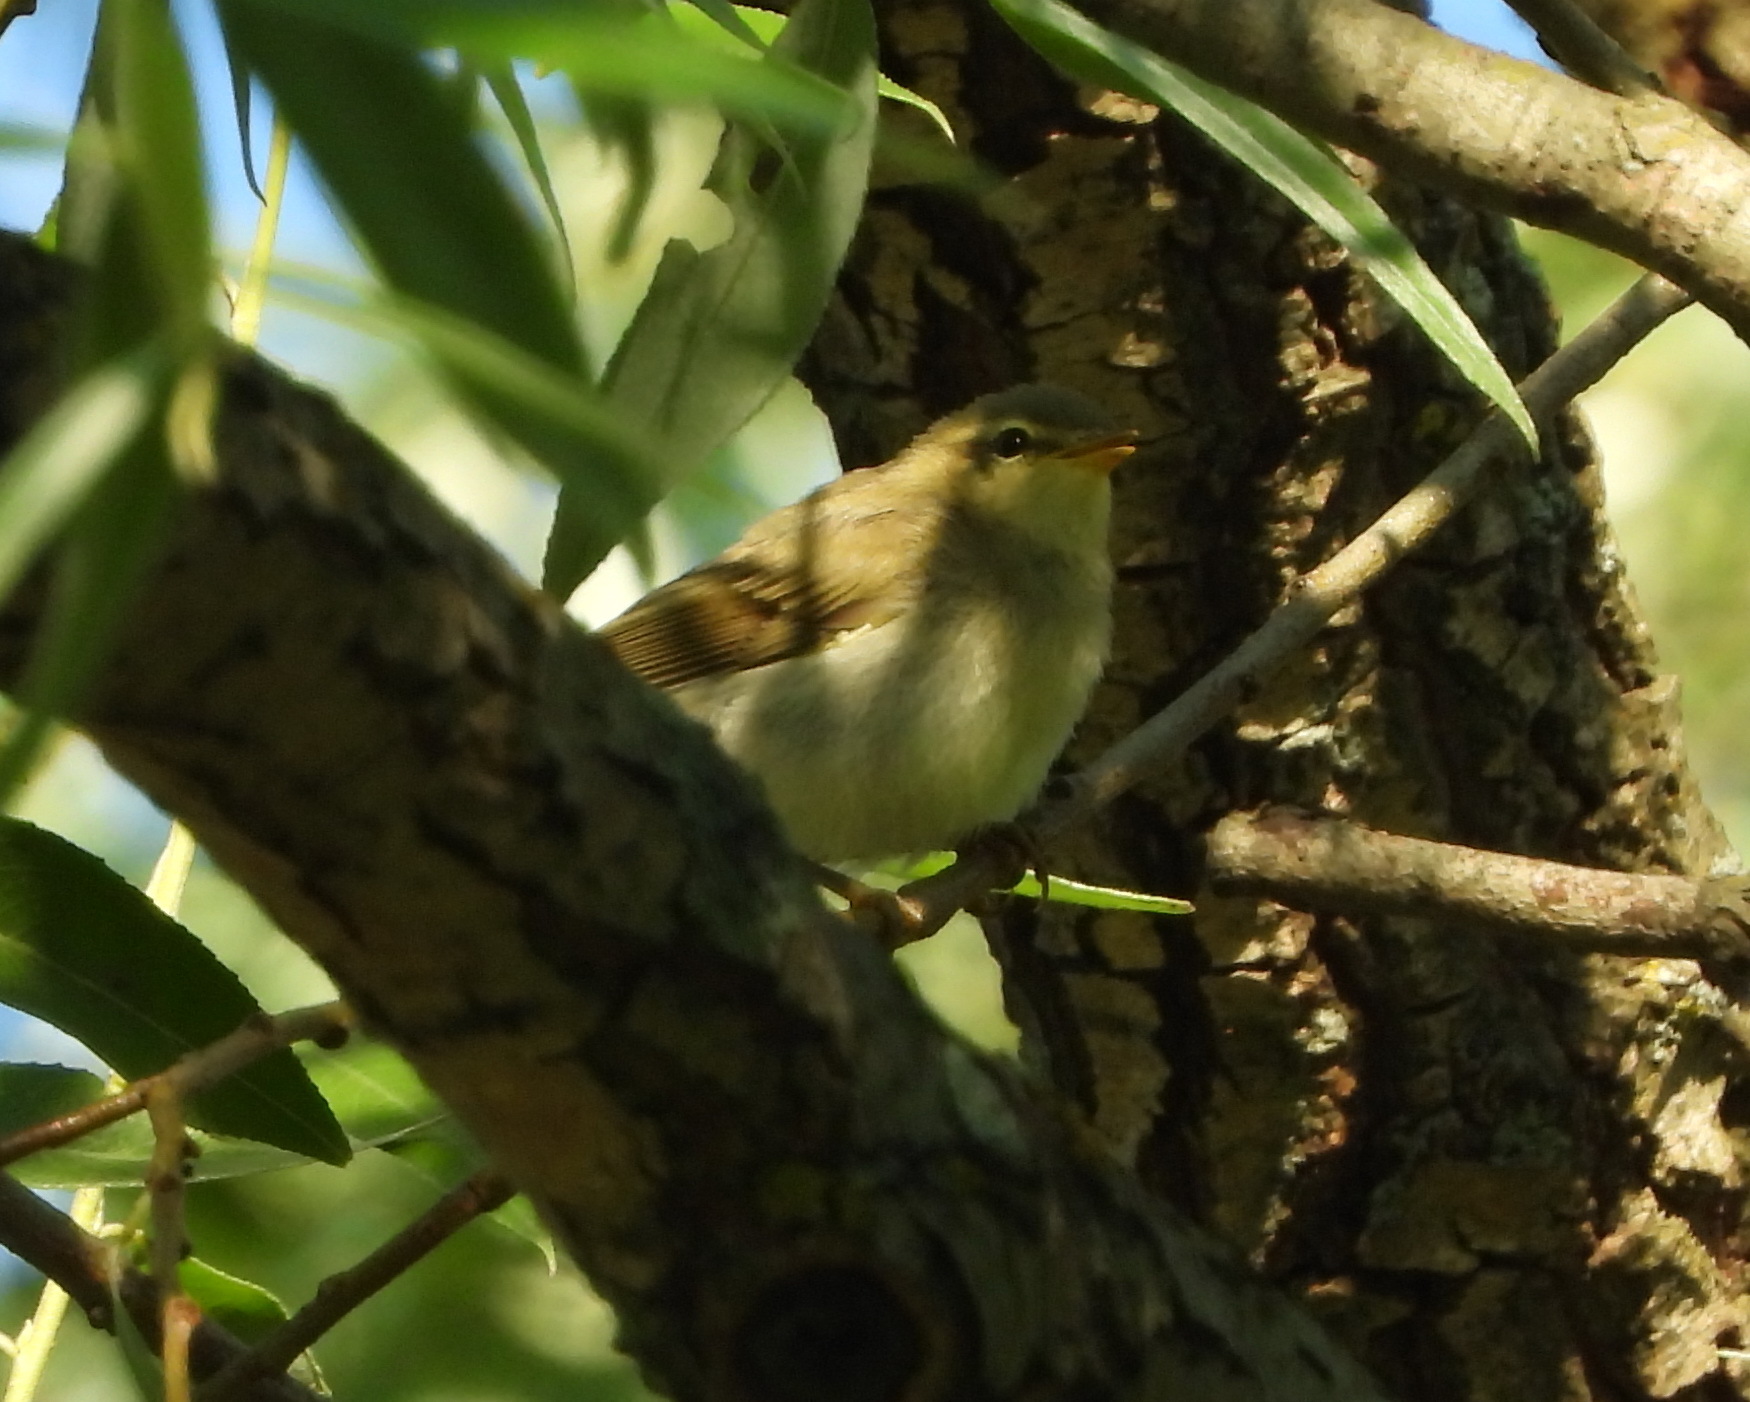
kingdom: Animalia
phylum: Chordata
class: Aves
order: Passeriformes
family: Phylloscopidae
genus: Phylloscopus
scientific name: Phylloscopus trochilus
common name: Willow warbler
